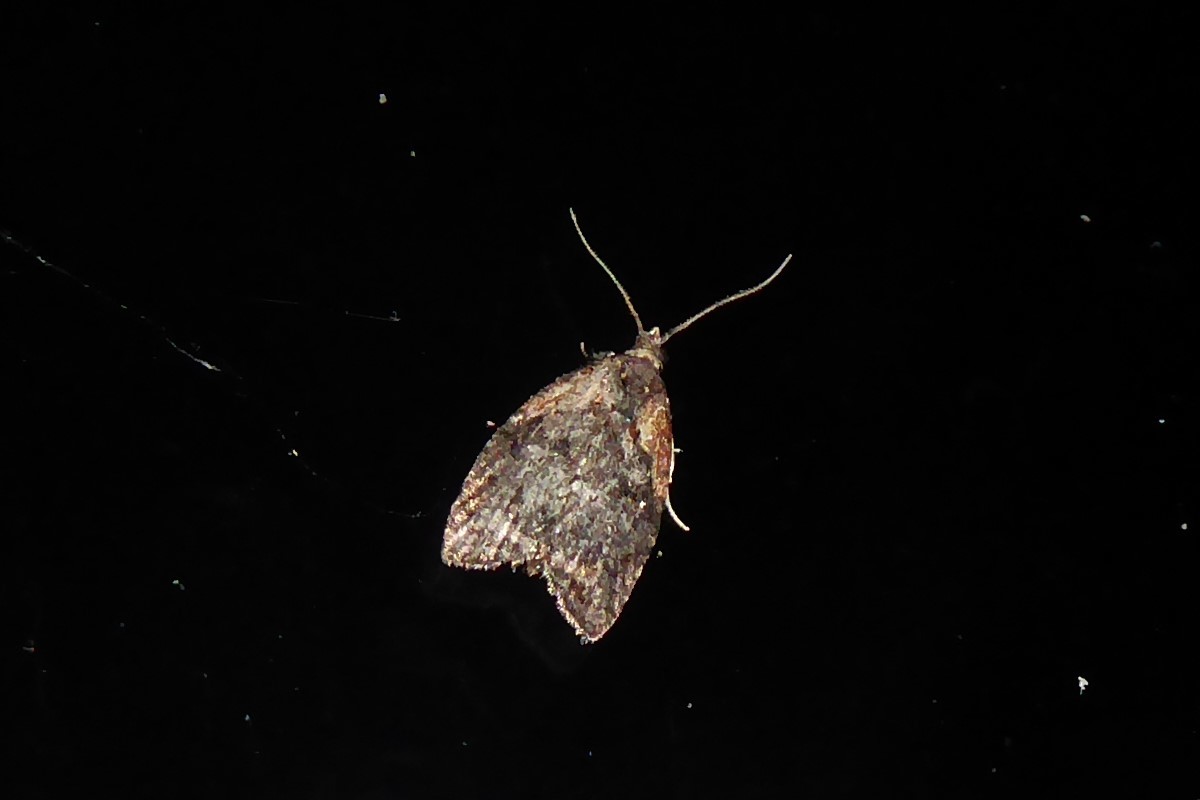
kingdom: Animalia
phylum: Arthropoda
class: Insecta
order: Lepidoptera
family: Tortricidae
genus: Capua
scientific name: Capua intractana
